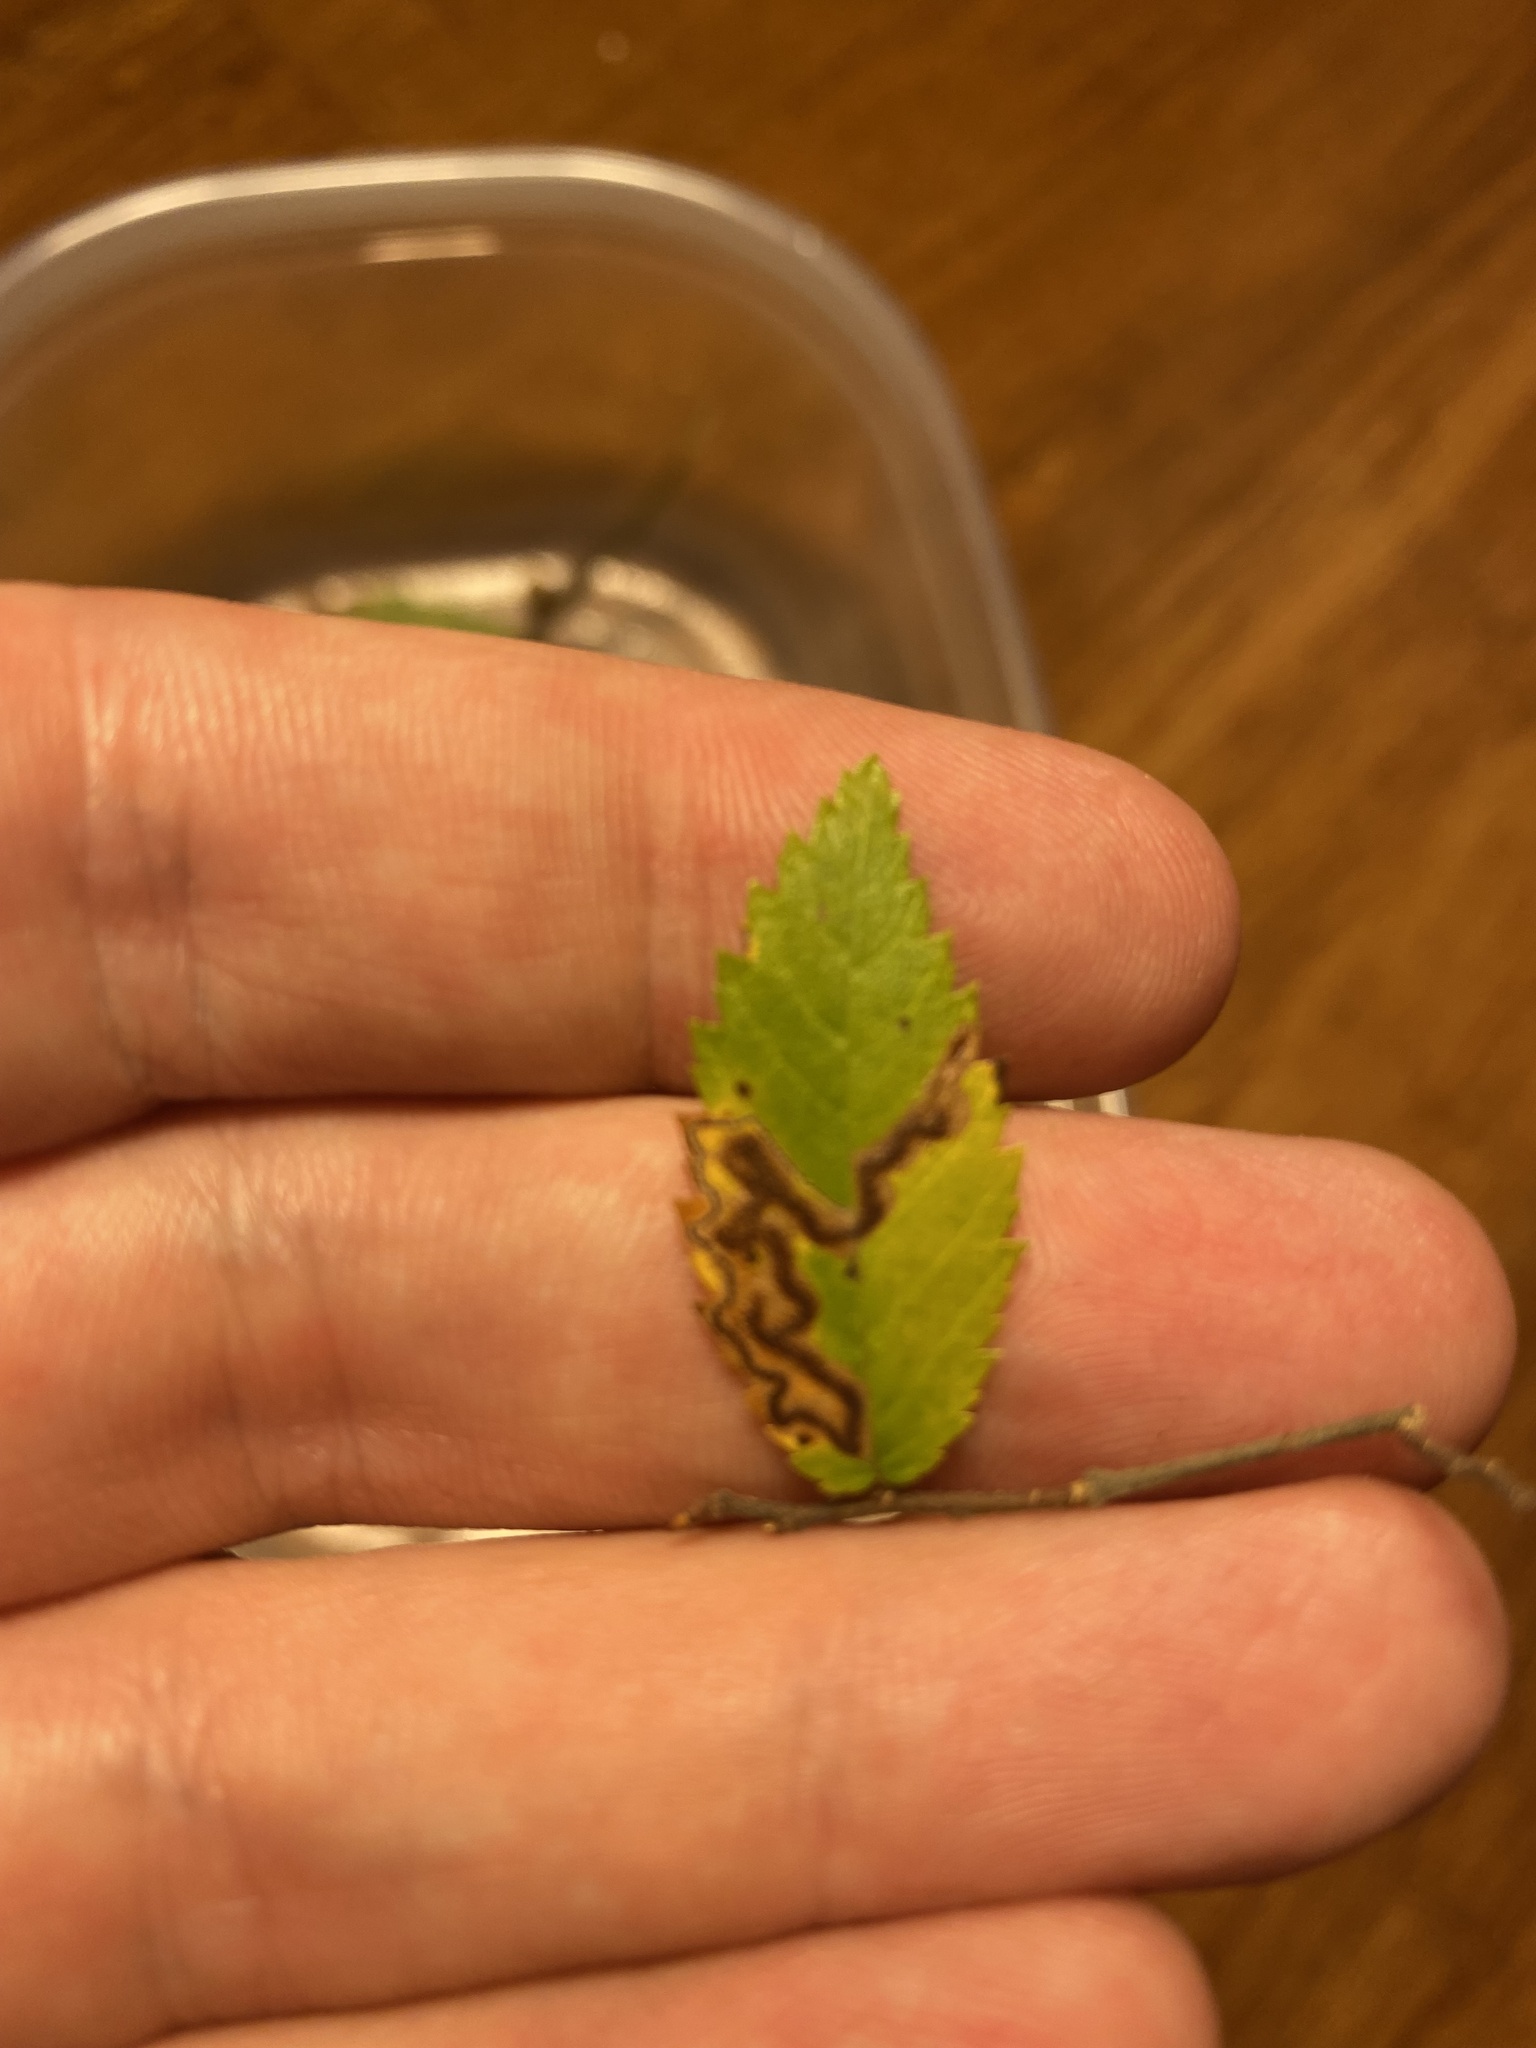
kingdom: Animalia
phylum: Arthropoda
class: Insecta
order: Lepidoptera
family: Nepticulidae
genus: Stigmella
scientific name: Stigmella apicialbella
